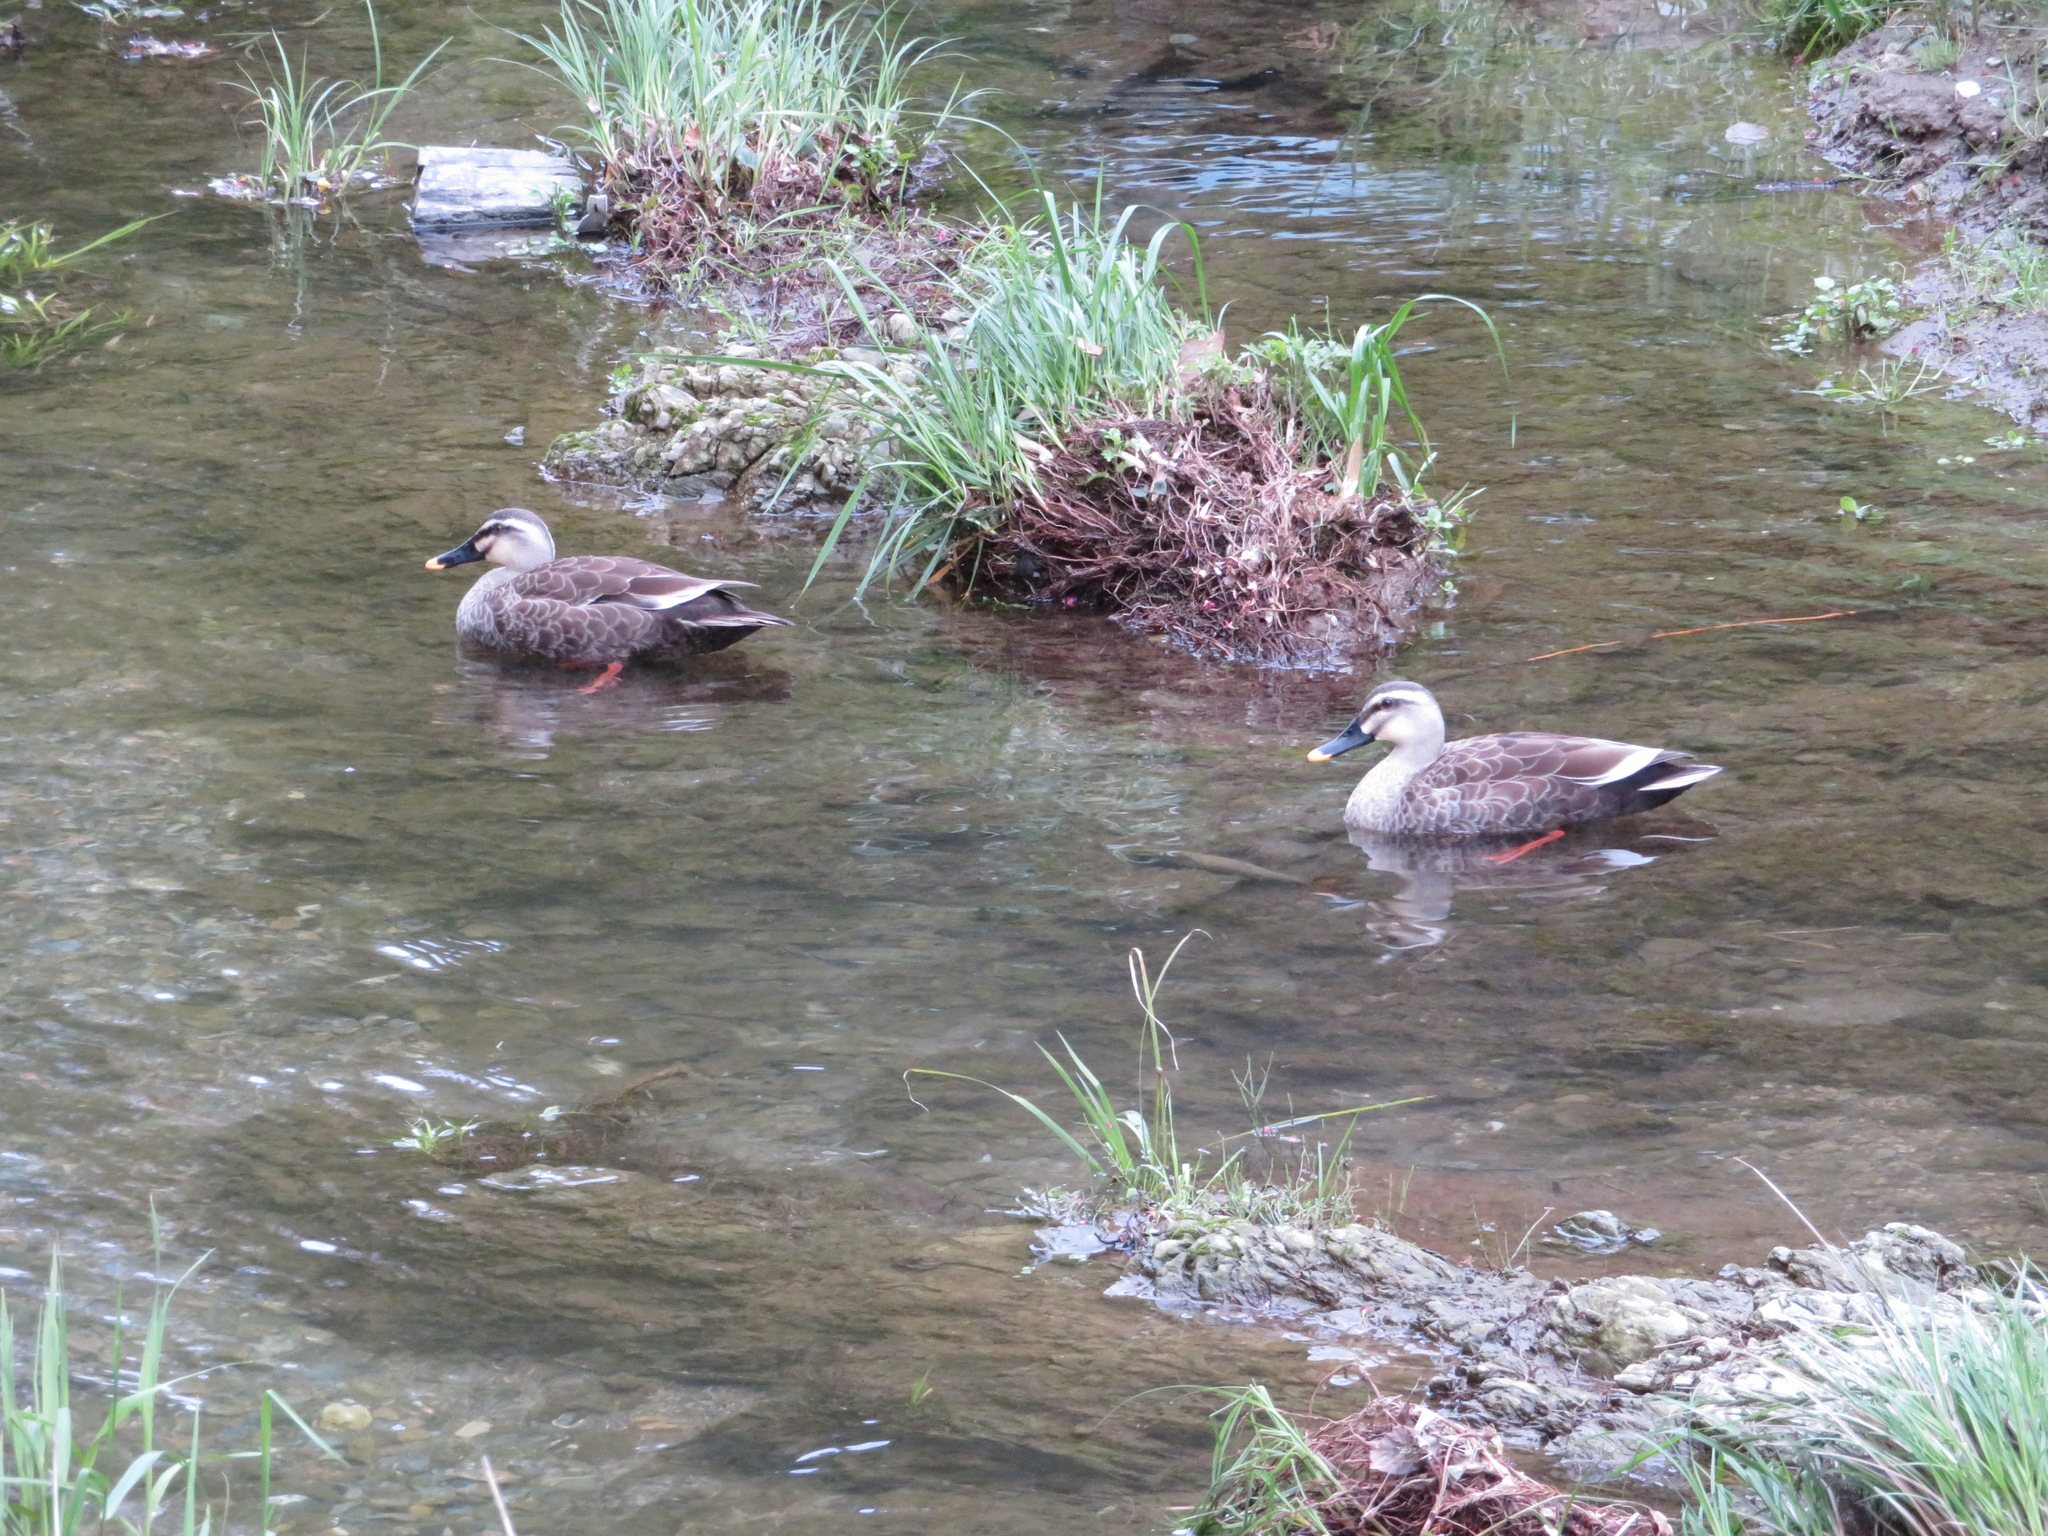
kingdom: Animalia
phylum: Chordata
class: Aves
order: Anseriformes
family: Anatidae
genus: Anas
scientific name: Anas zonorhyncha
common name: Eastern spot-billed duck
